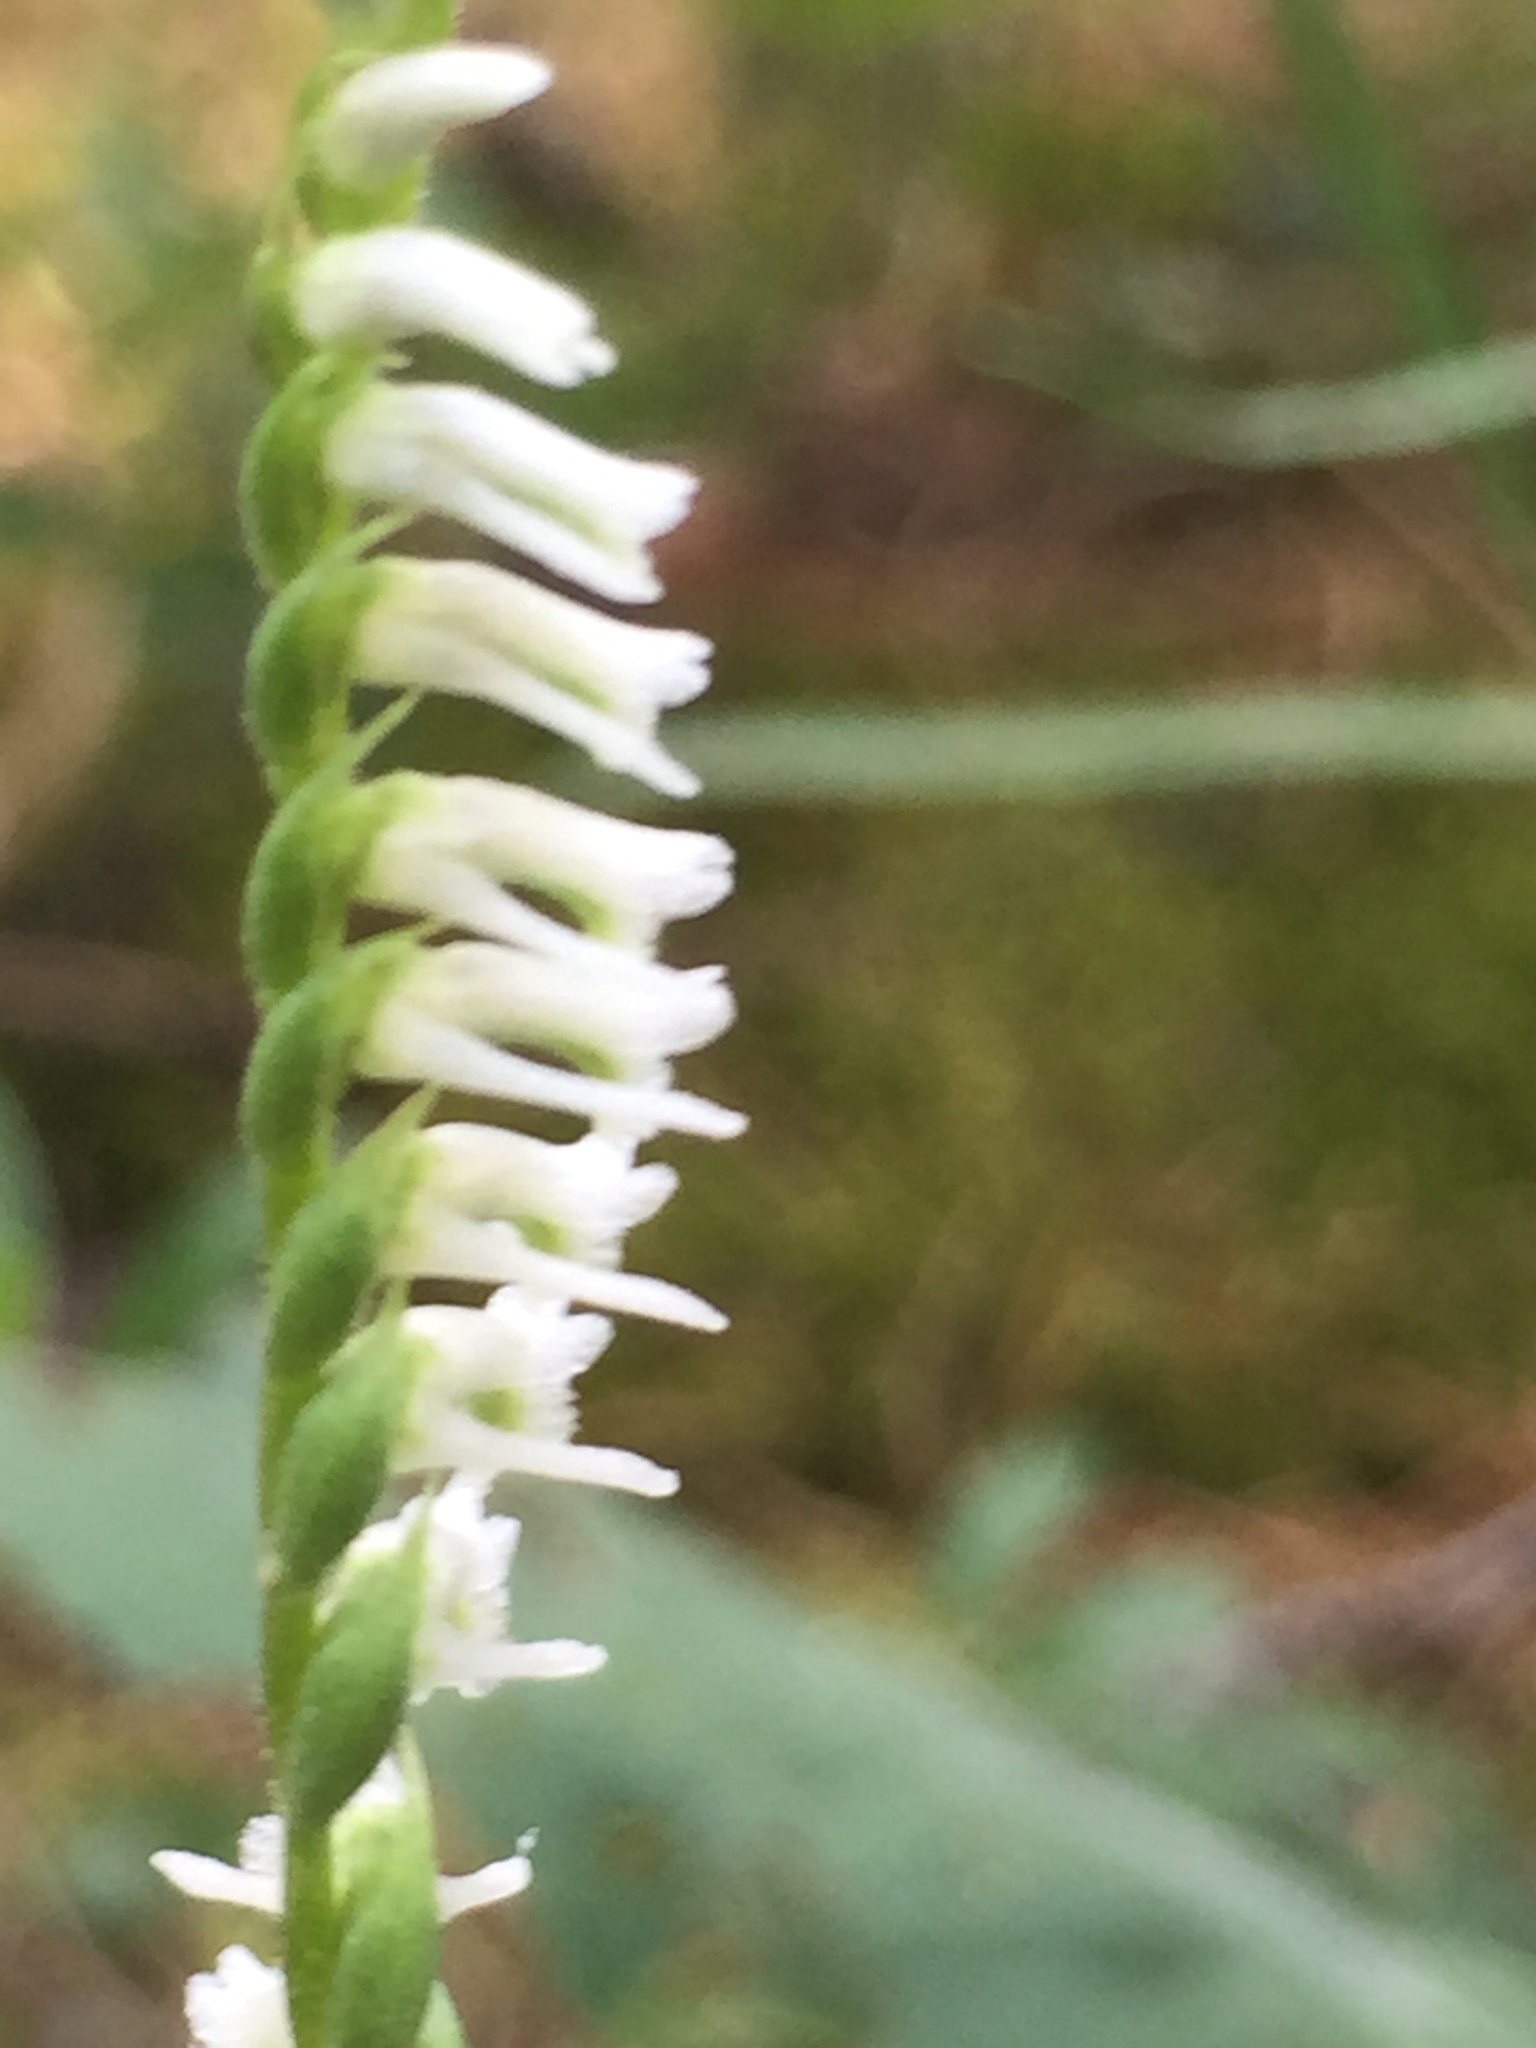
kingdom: Plantae
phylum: Tracheophyta
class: Liliopsida
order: Asparagales
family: Orchidaceae
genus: Spiranthes
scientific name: Spiranthes lacera
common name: Northern slender ladies'-tresses
